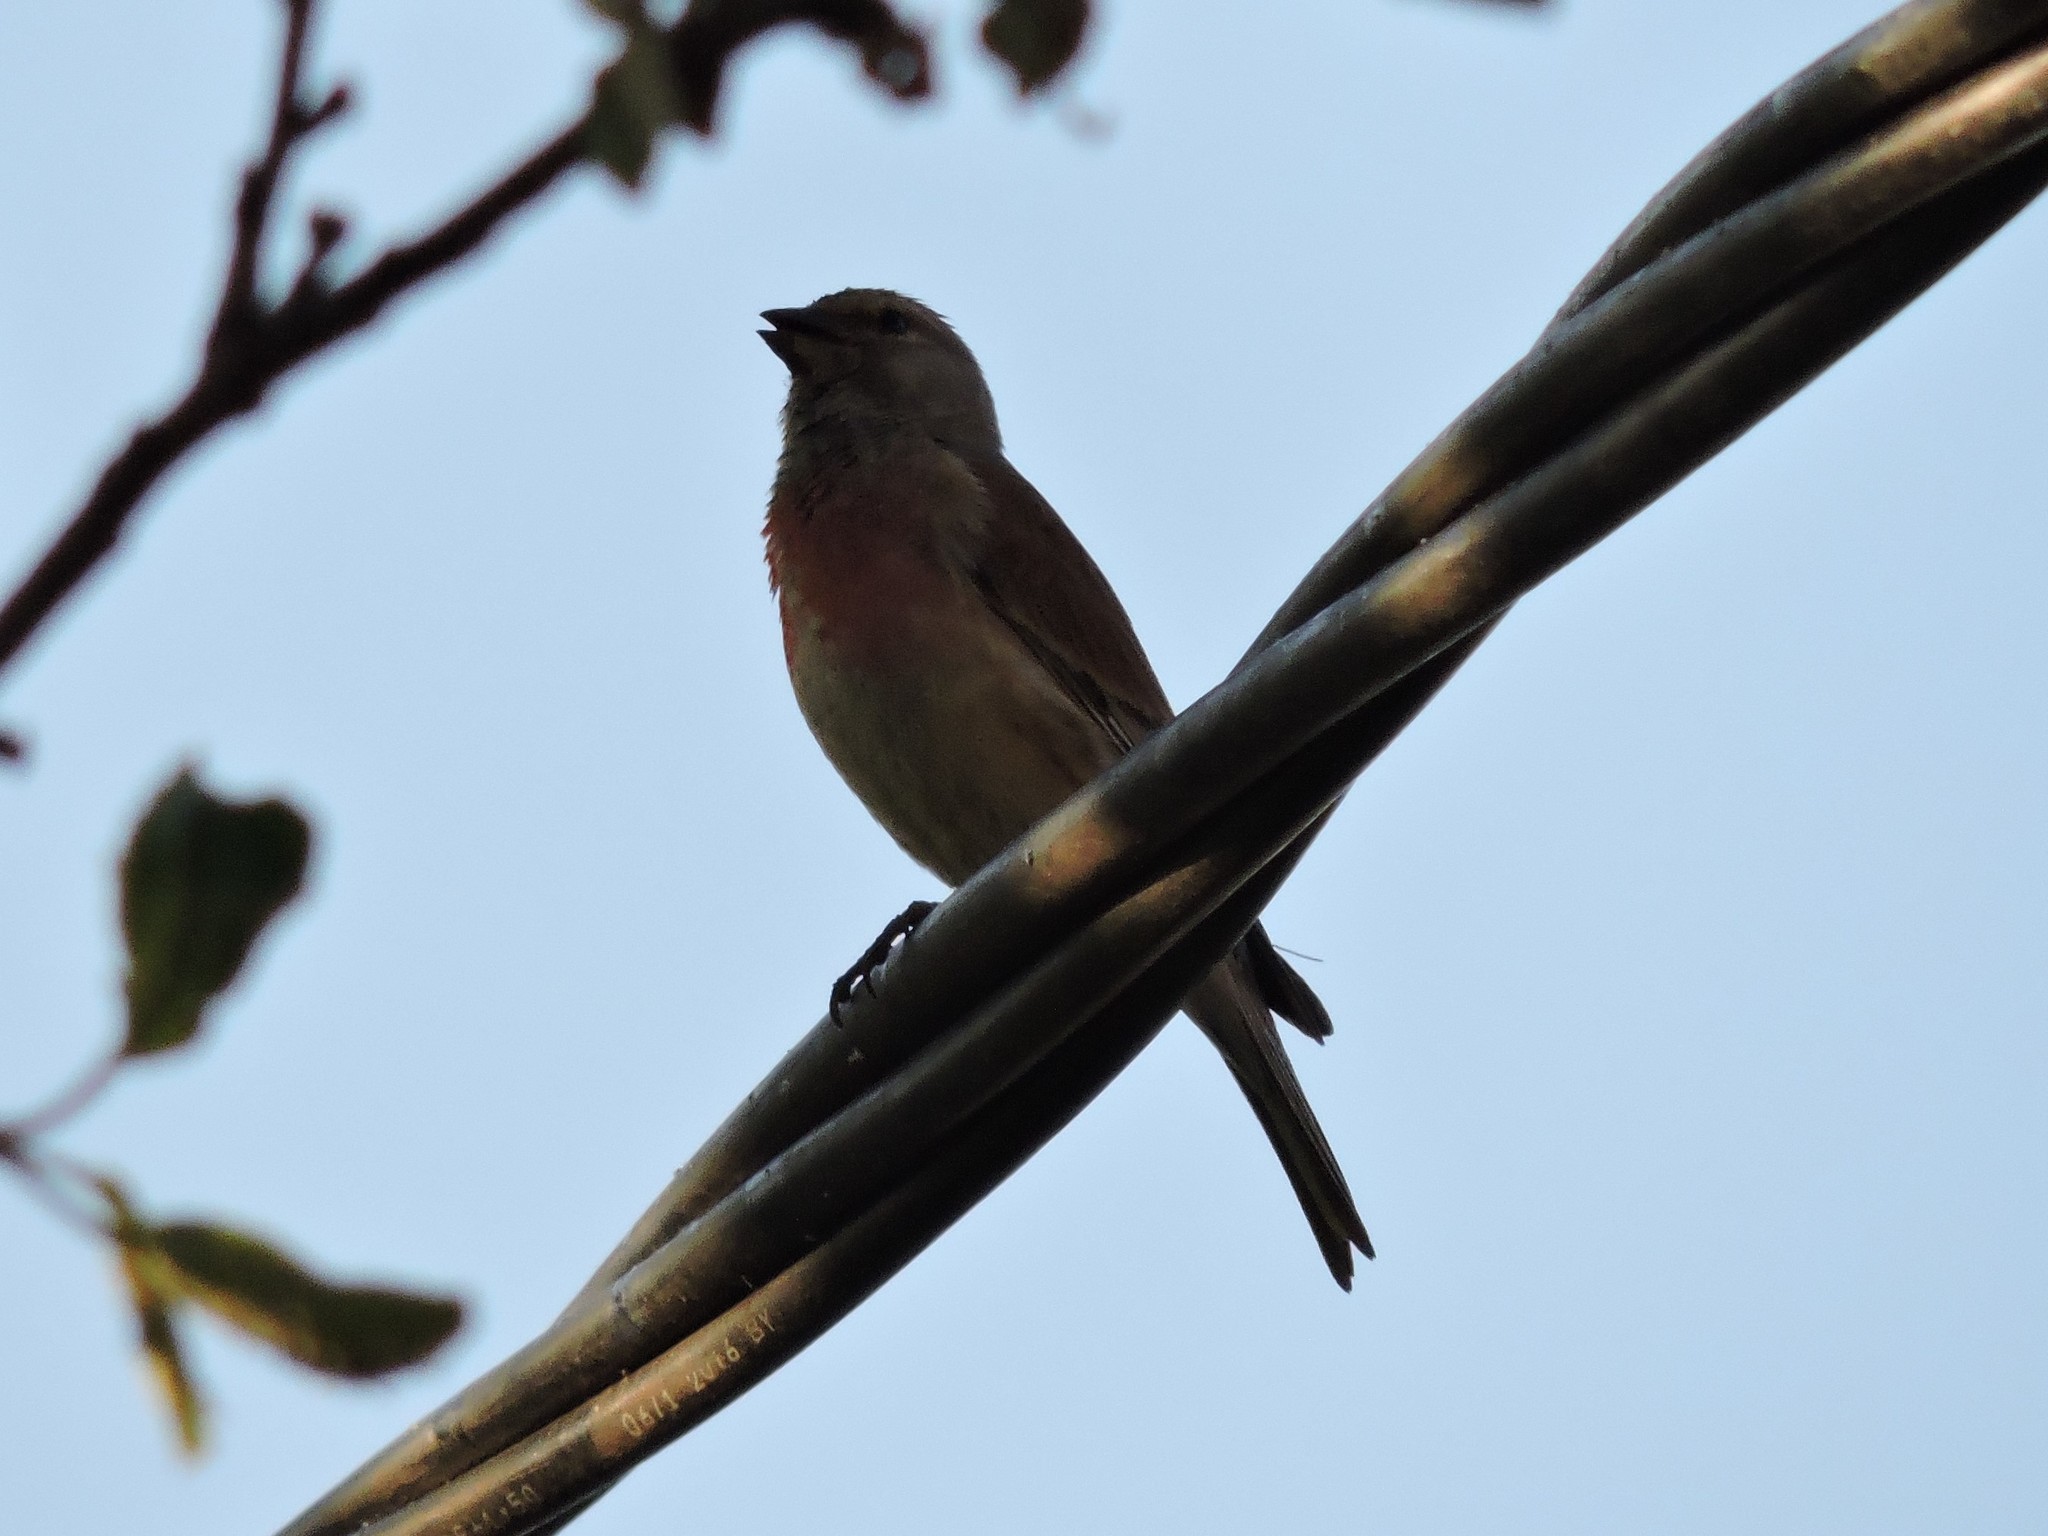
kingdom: Animalia
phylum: Chordata
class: Aves
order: Passeriformes
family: Fringillidae
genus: Linaria
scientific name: Linaria cannabina
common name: Common linnet
